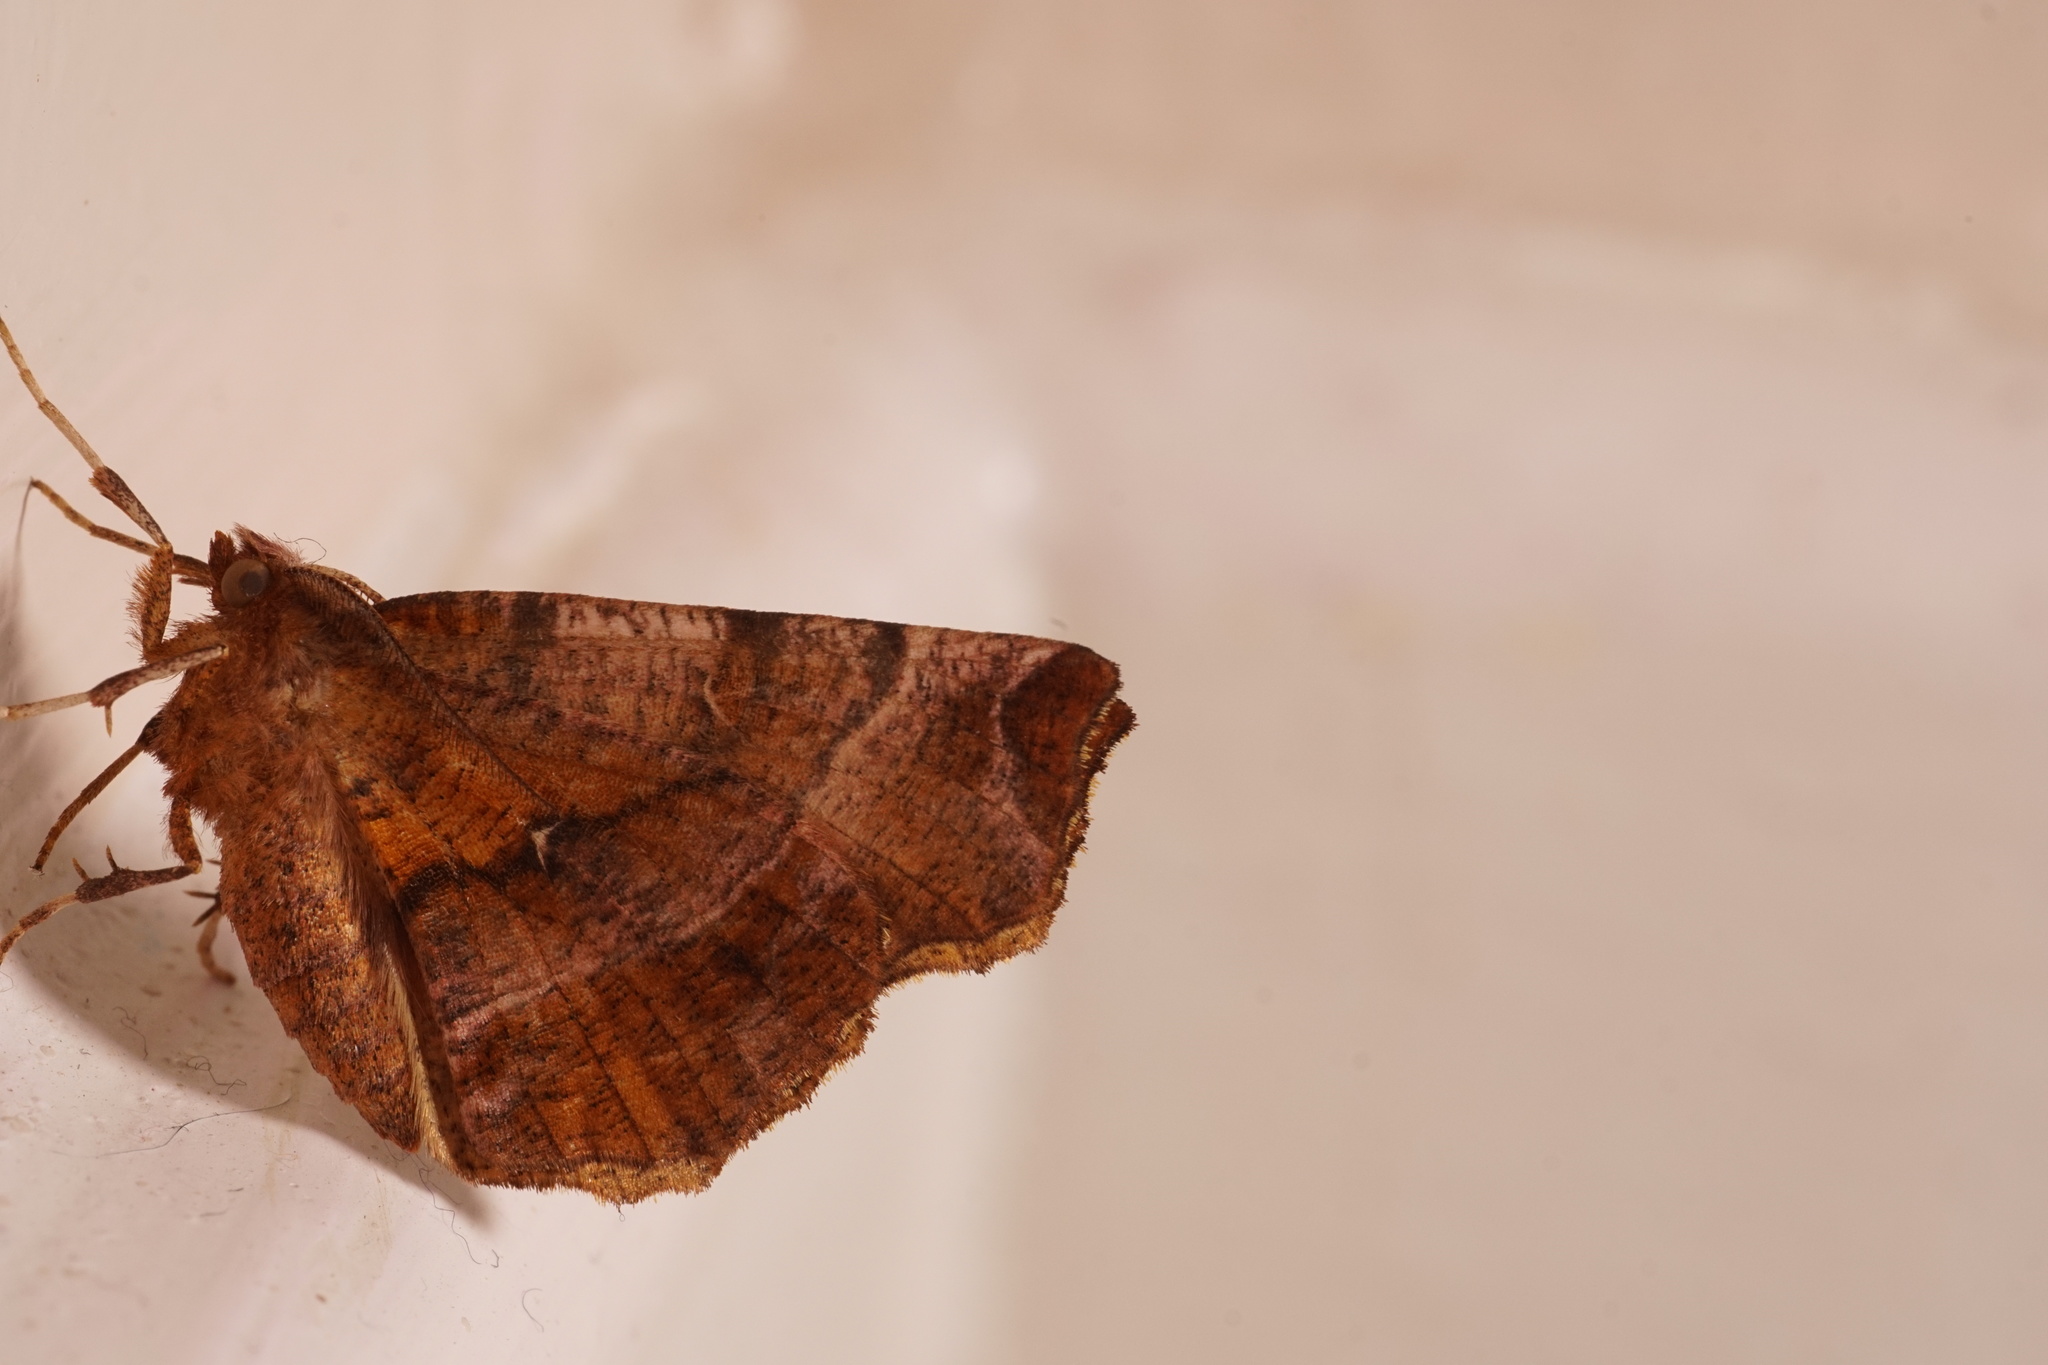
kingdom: Animalia
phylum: Arthropoda
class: Insecta
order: Lepidoptera
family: Geometridae
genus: Selenia
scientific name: Selenia dentaria
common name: Early thorn
